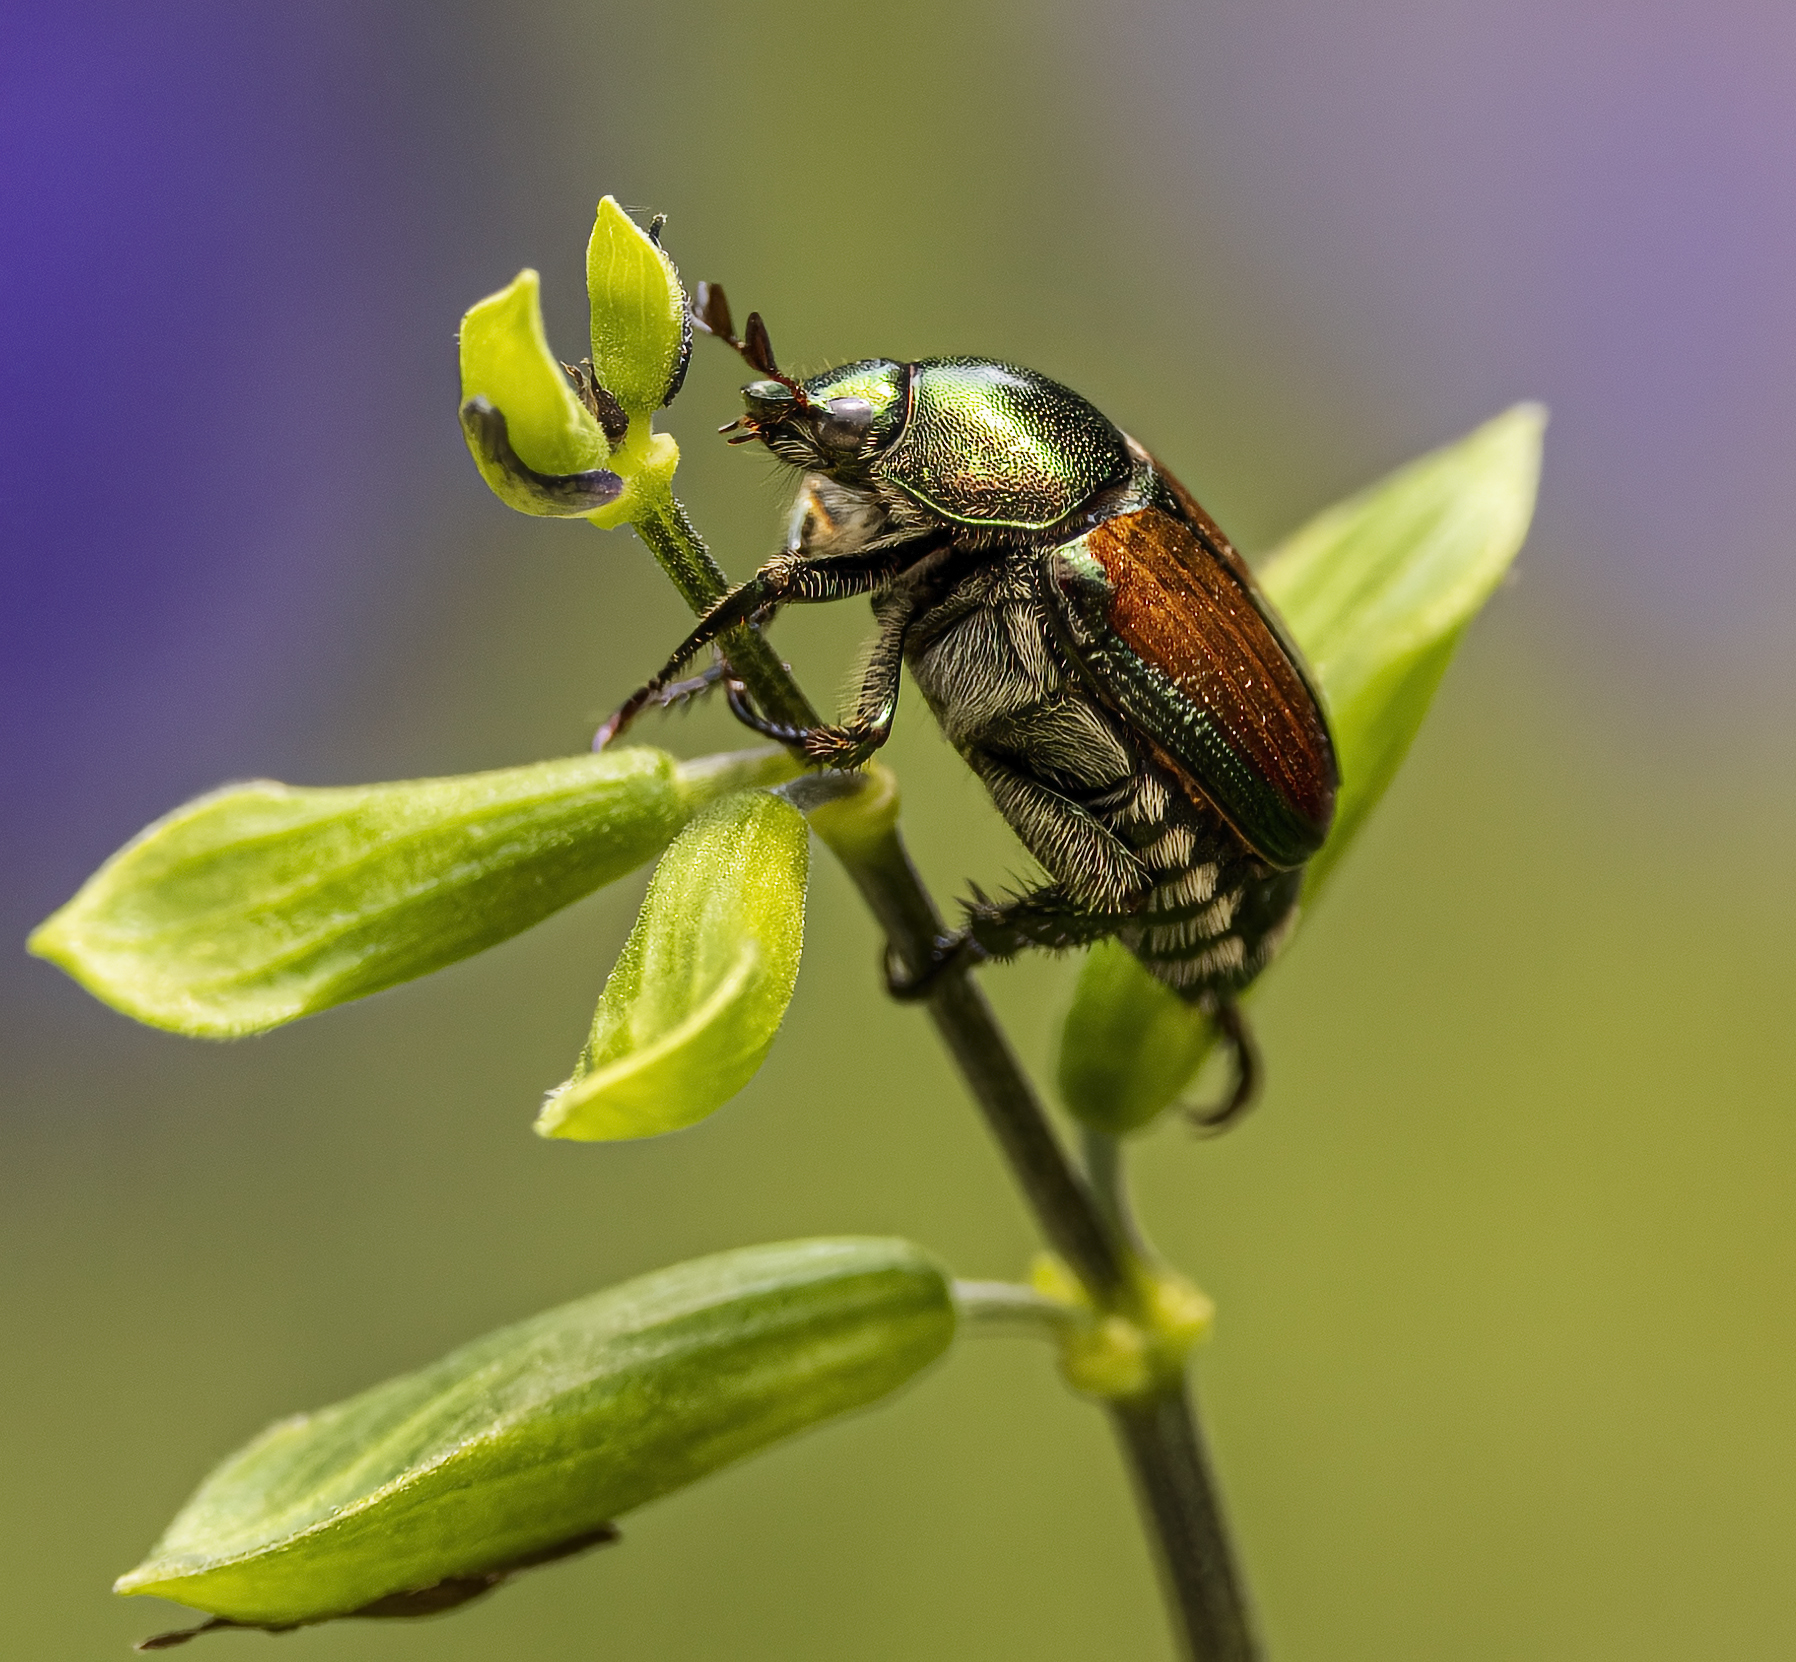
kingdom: Animalia
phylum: Arthropoda
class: Insecta
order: Coleoptera
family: Scarabaeidae
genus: Popillia
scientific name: Popillia japonica
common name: Japanese beetle
